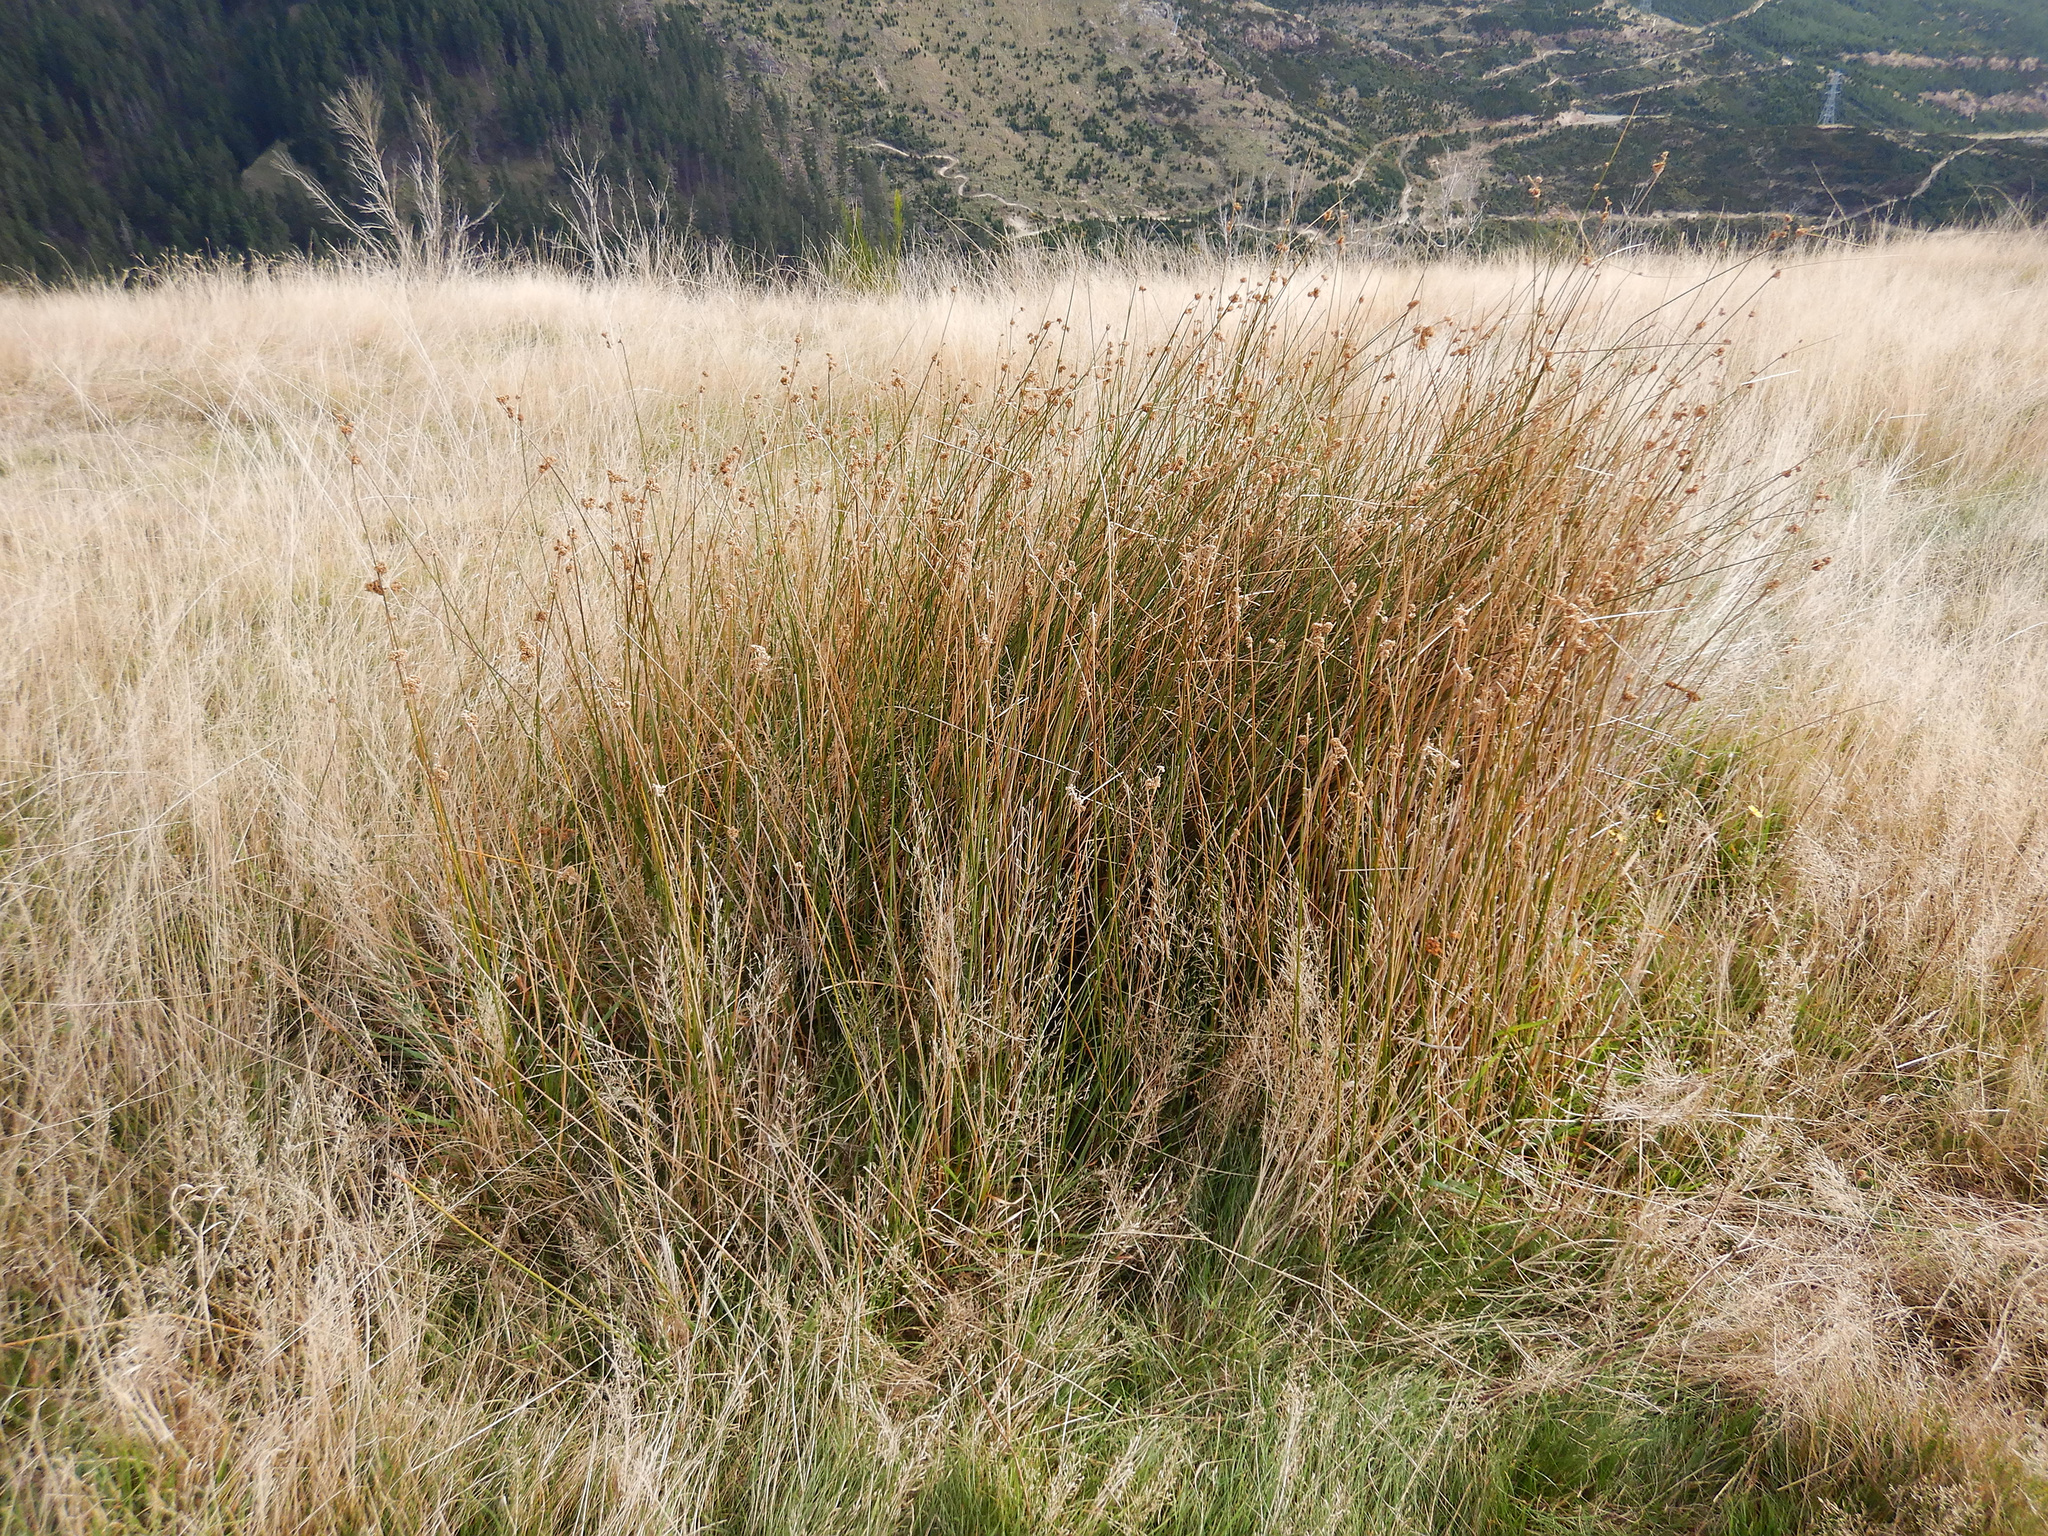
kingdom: Plantae
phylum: Tracheophyta
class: Liliopsida
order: Poales
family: Juncaceae
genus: Juncus
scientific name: Juncus edgariae
